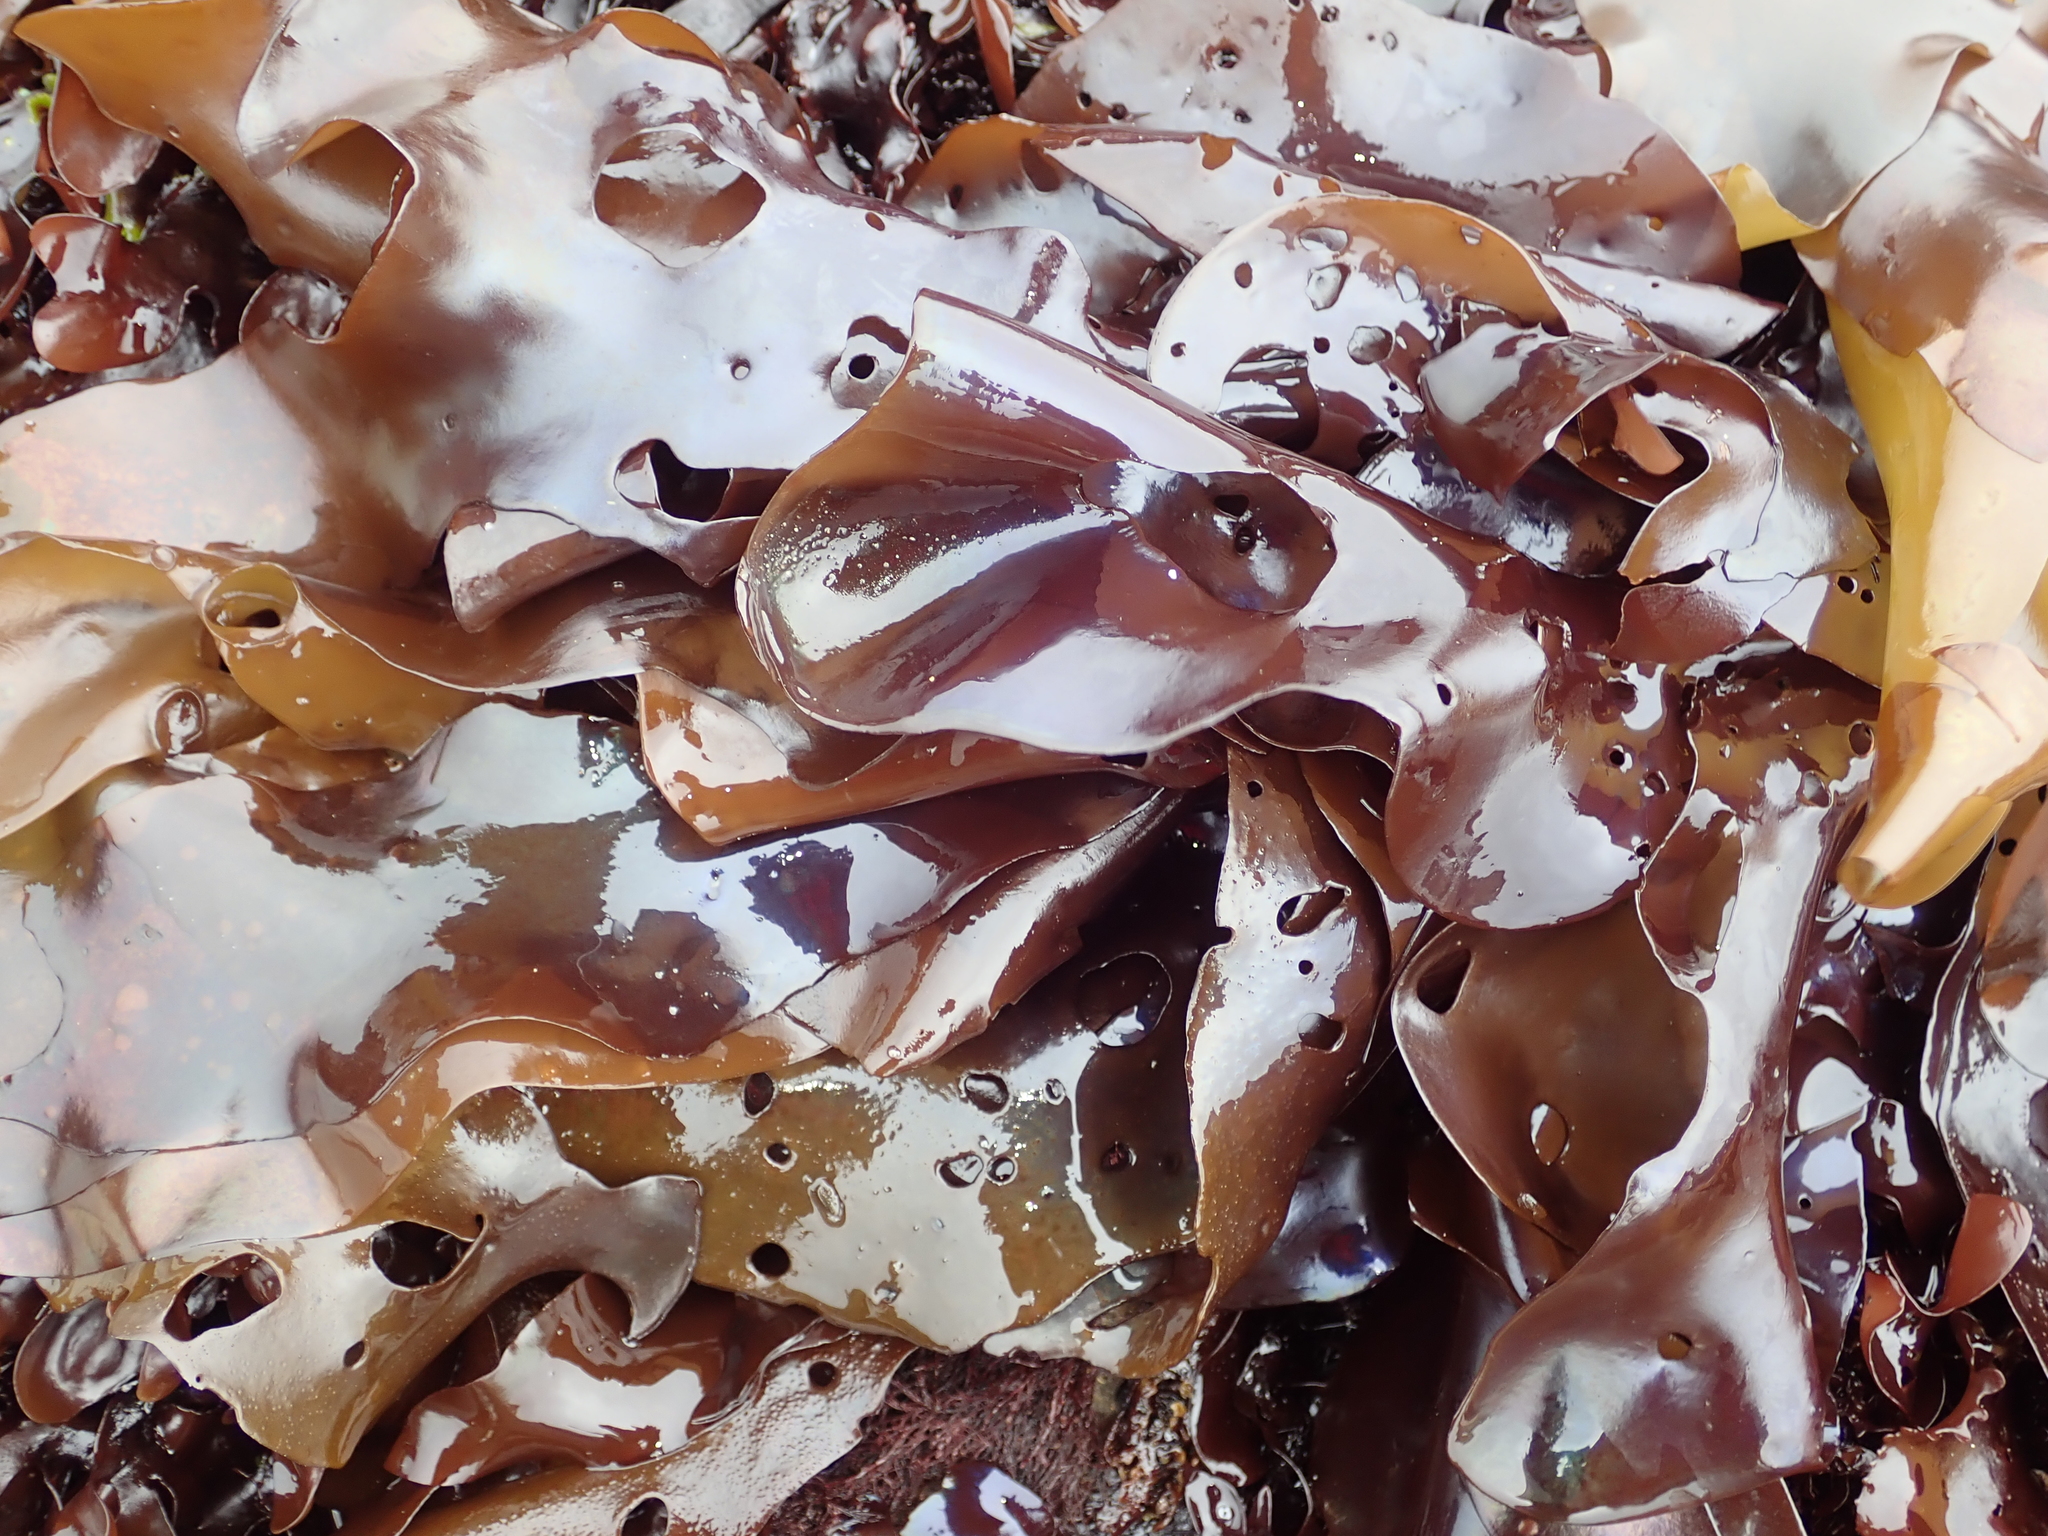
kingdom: Plantae
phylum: Rhodophyta
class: Florideophyceae
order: Gigartinales
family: Gigartinaceae
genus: Mazzaella
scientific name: Mazzaella splendens
